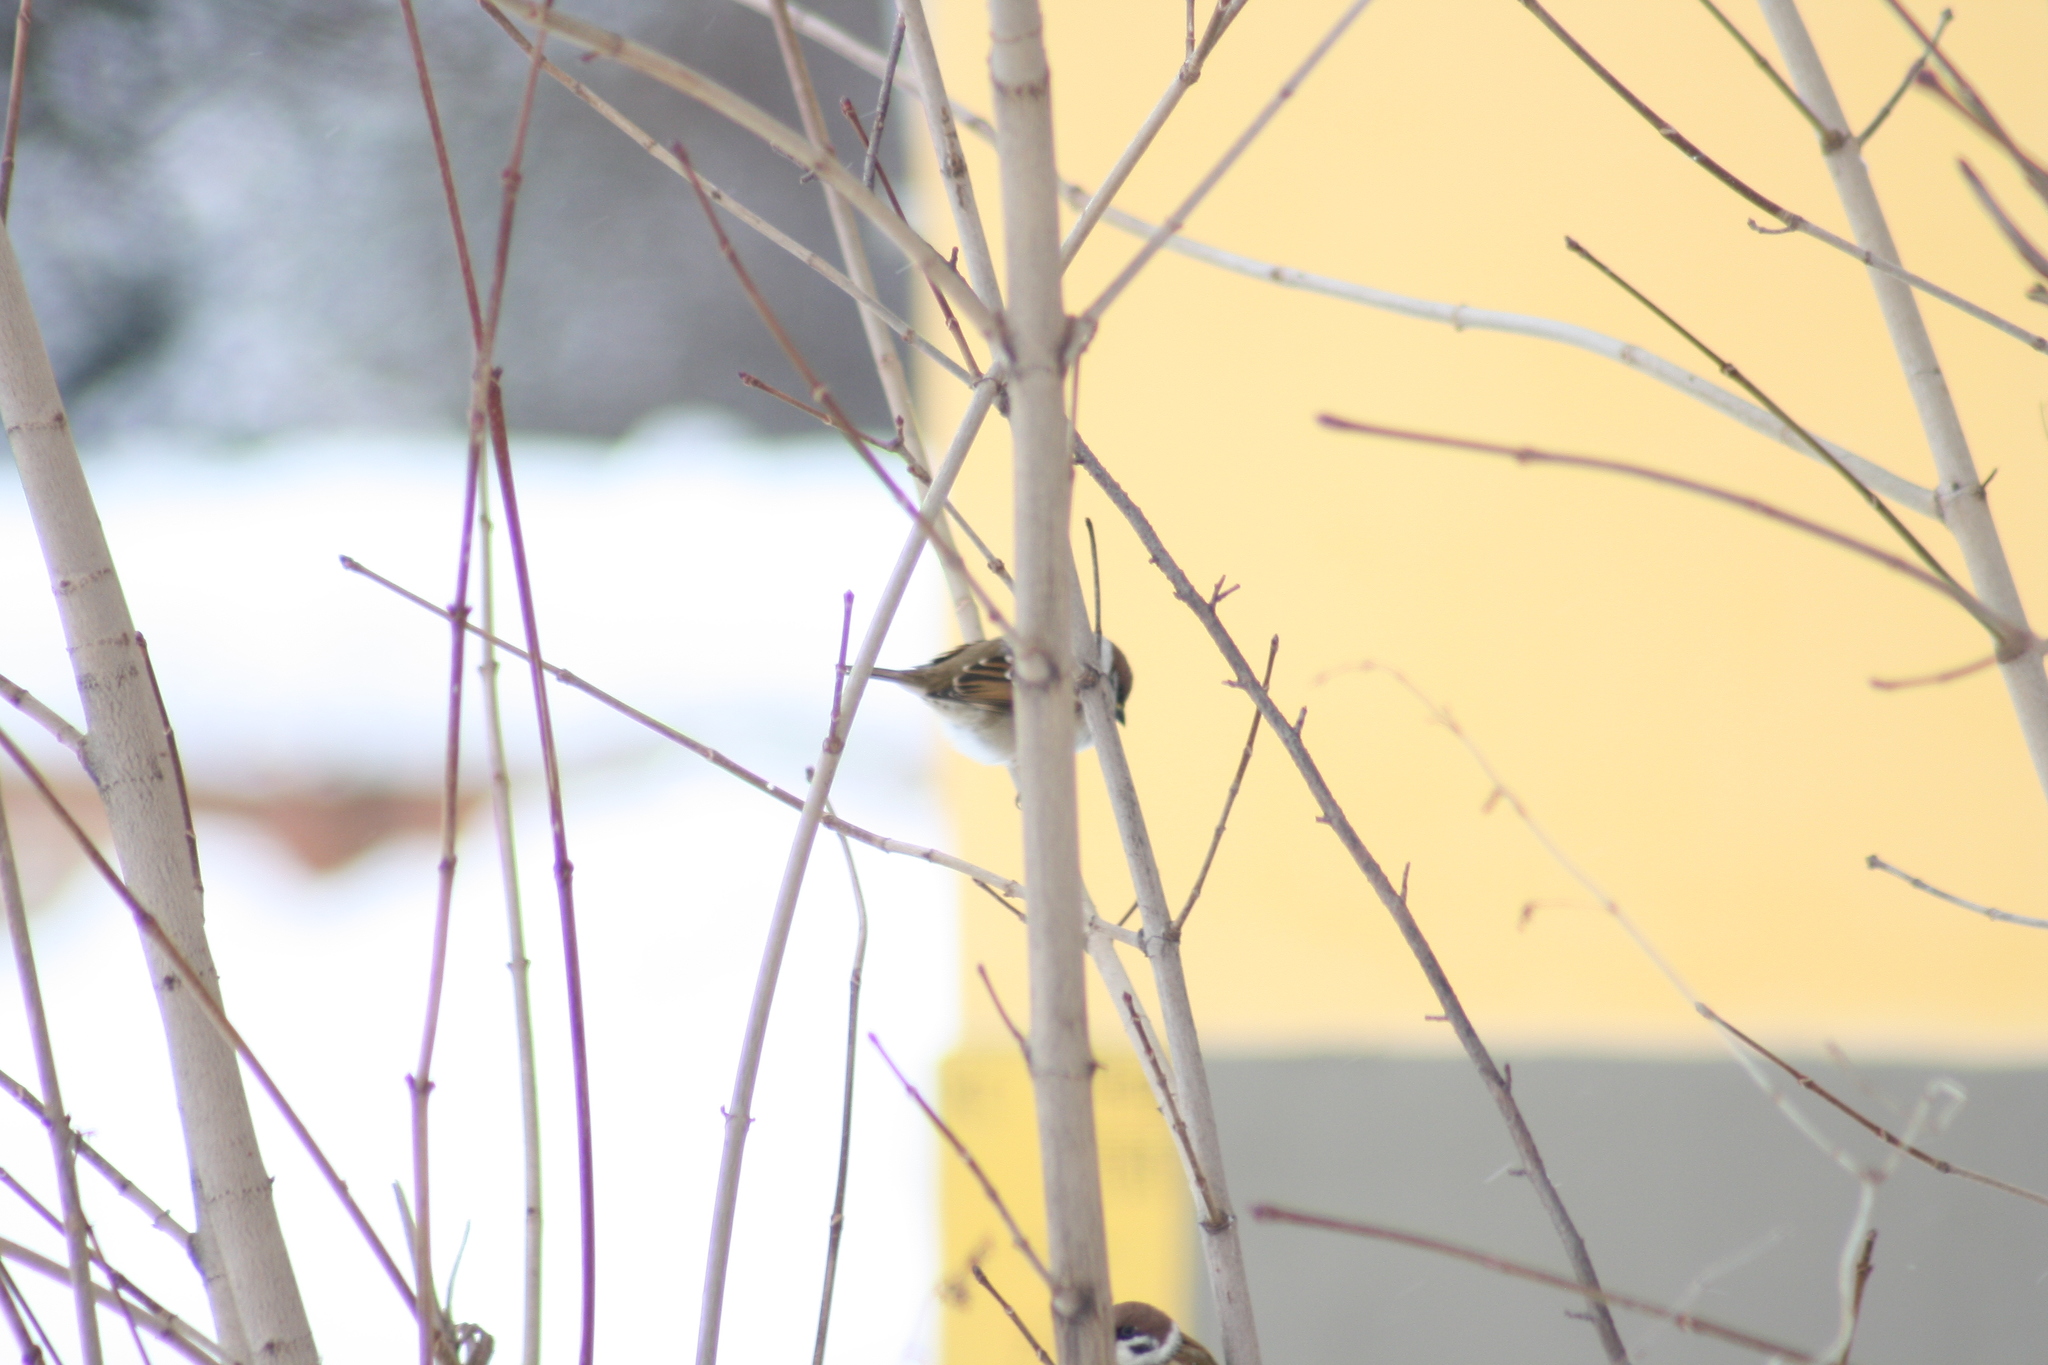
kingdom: Animalia
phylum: Chordata
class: Aves
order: Passeriformes
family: Passeridae
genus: Passer
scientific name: Passer montanus
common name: Eurasian tree sparrow
